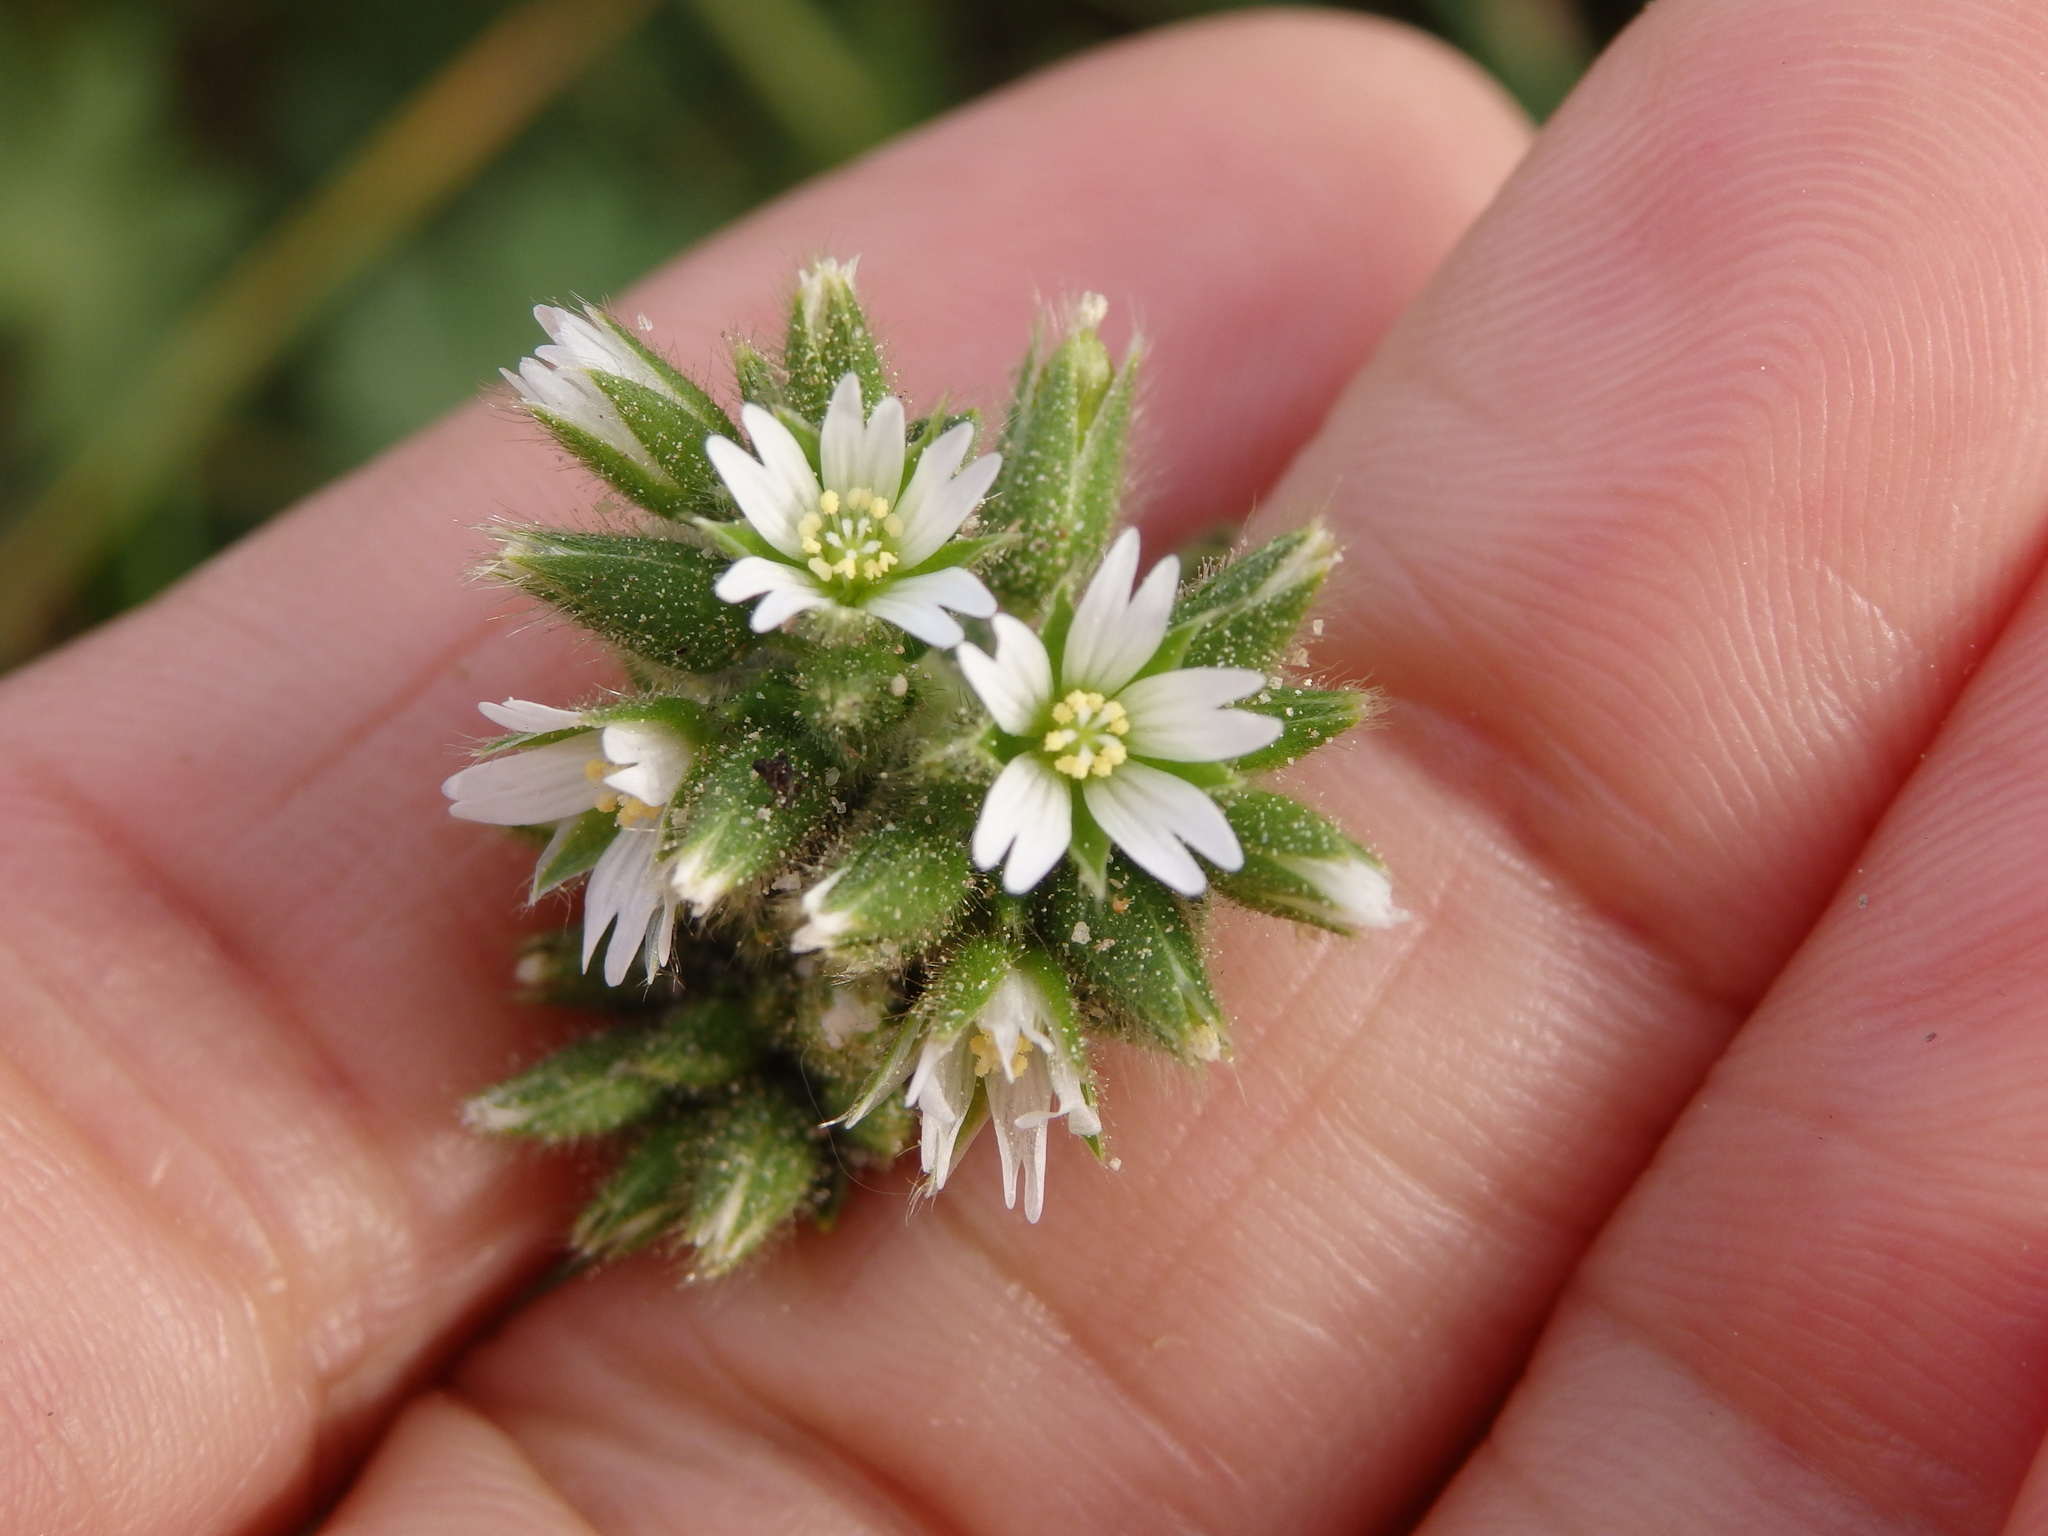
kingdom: Plantae
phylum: Tracheophyta
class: Magnoliopsida
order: Caryophyllales
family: Caryophyllaceae
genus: Cerastium
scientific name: Cerastium glomeratum
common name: Sticky chickweed
